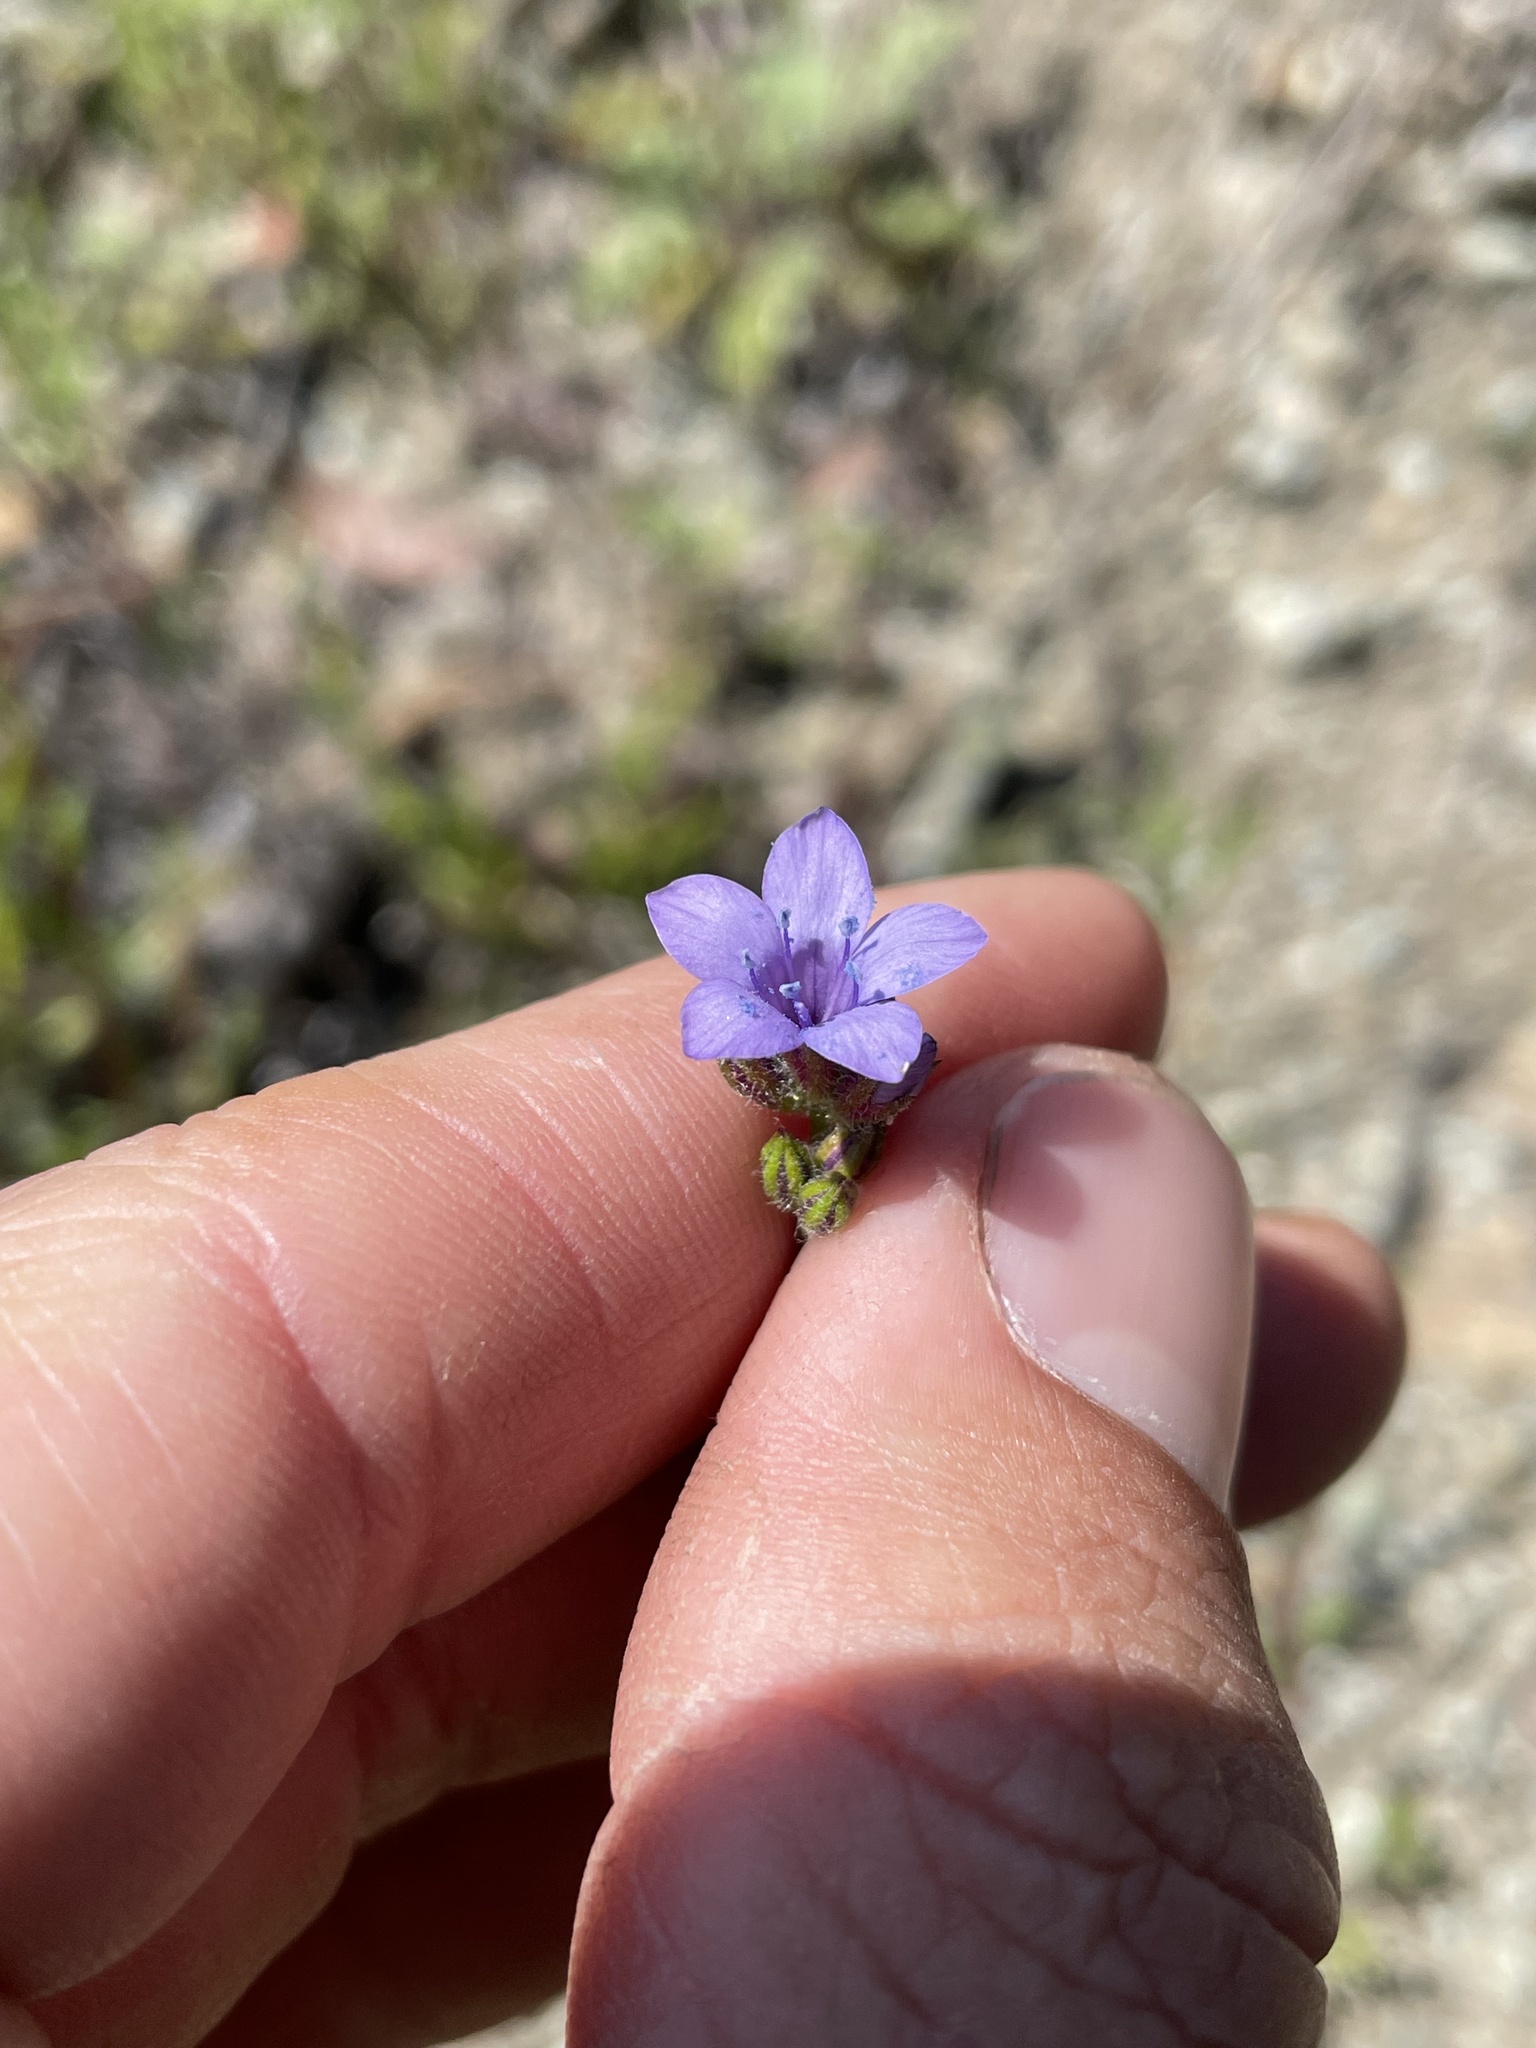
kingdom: Plantae
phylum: Tracheophyta
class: Magnoliopsida
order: Ericales
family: Polemoniaceae
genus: Gilia
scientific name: Gilia achilleifolia
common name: California gily-flower
